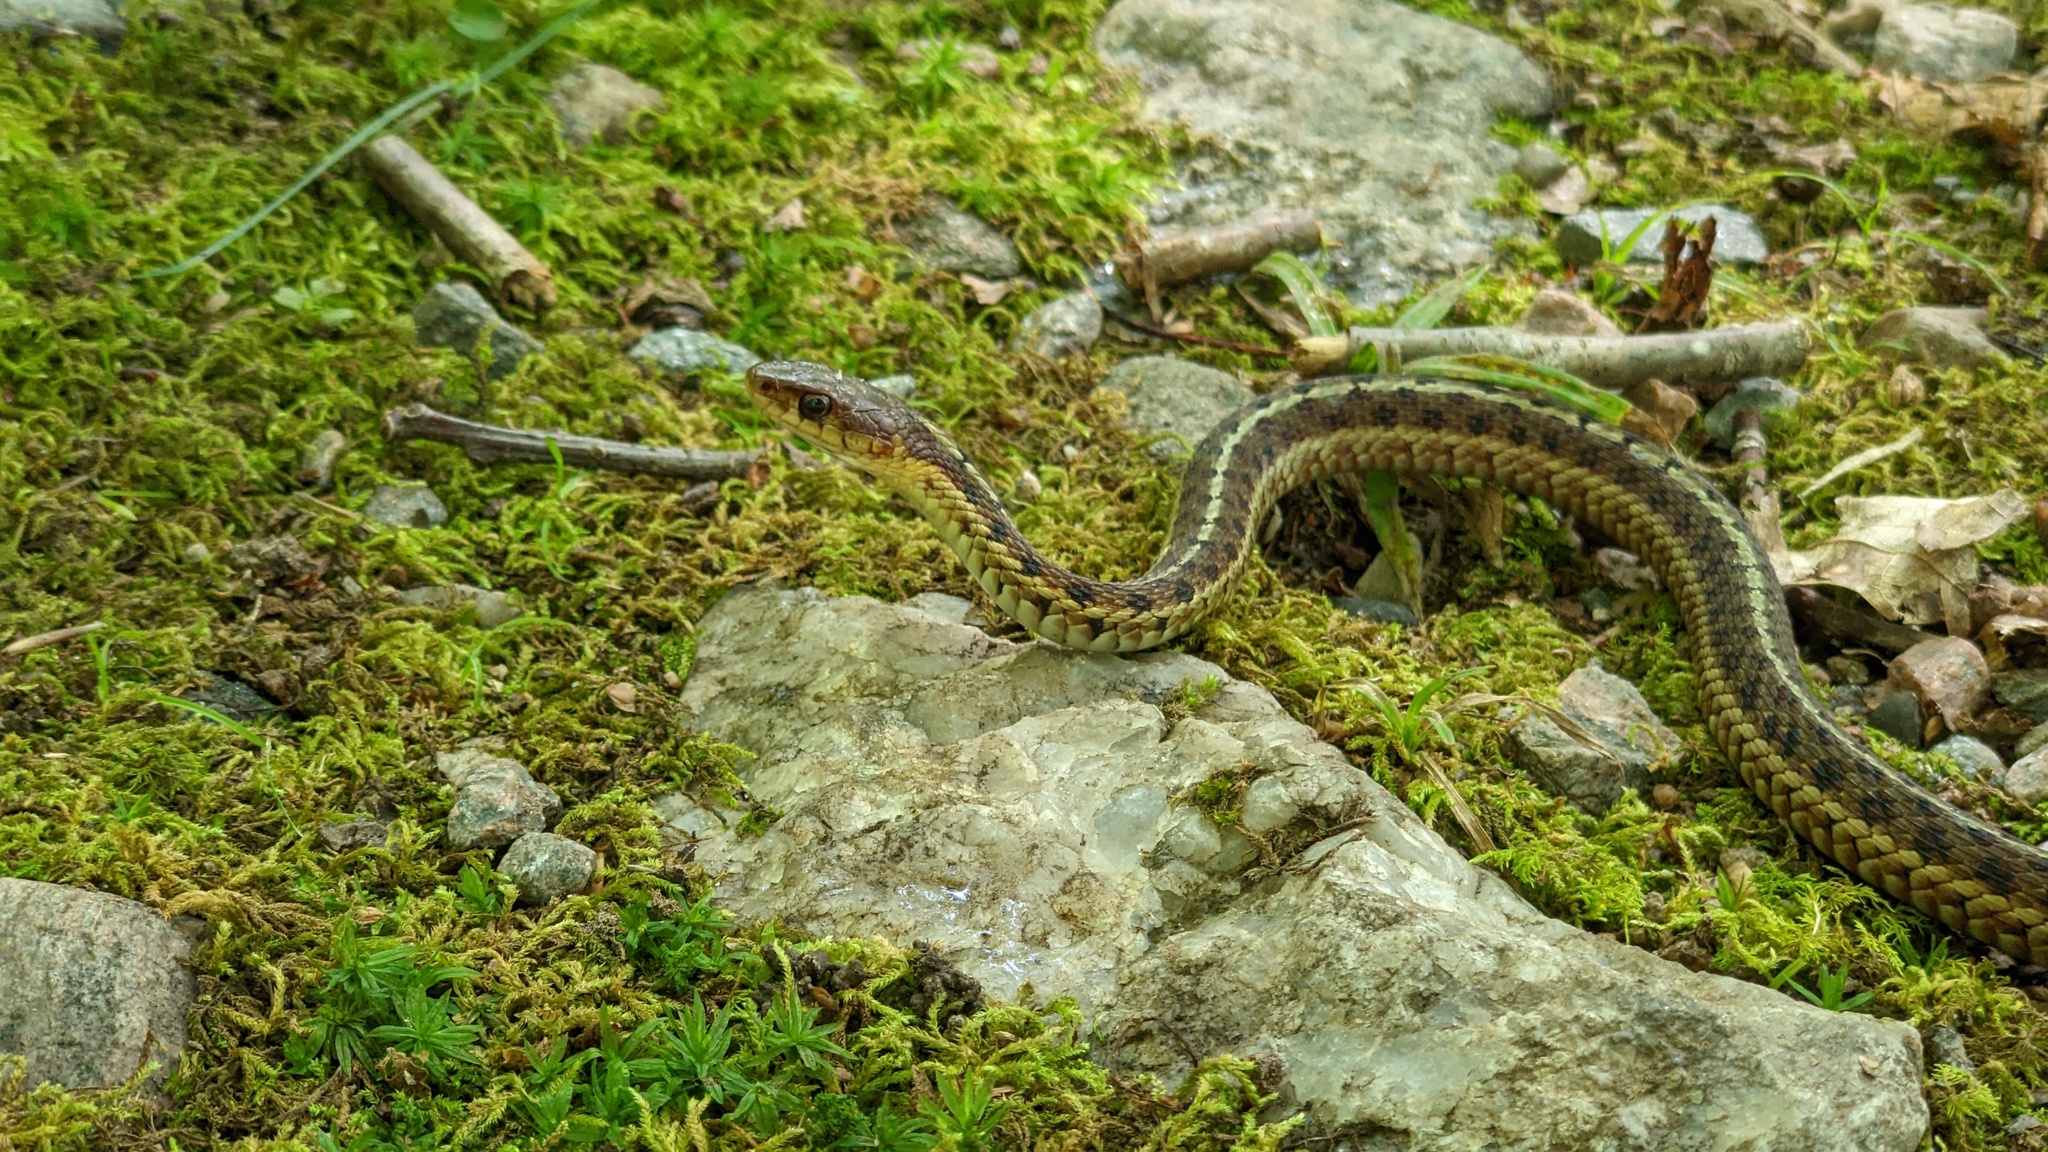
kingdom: Animalia
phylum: Chordata
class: Squamata
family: Colubridae
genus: Thamnophis
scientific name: Thamnophis sirtalis
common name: Common garter snake
